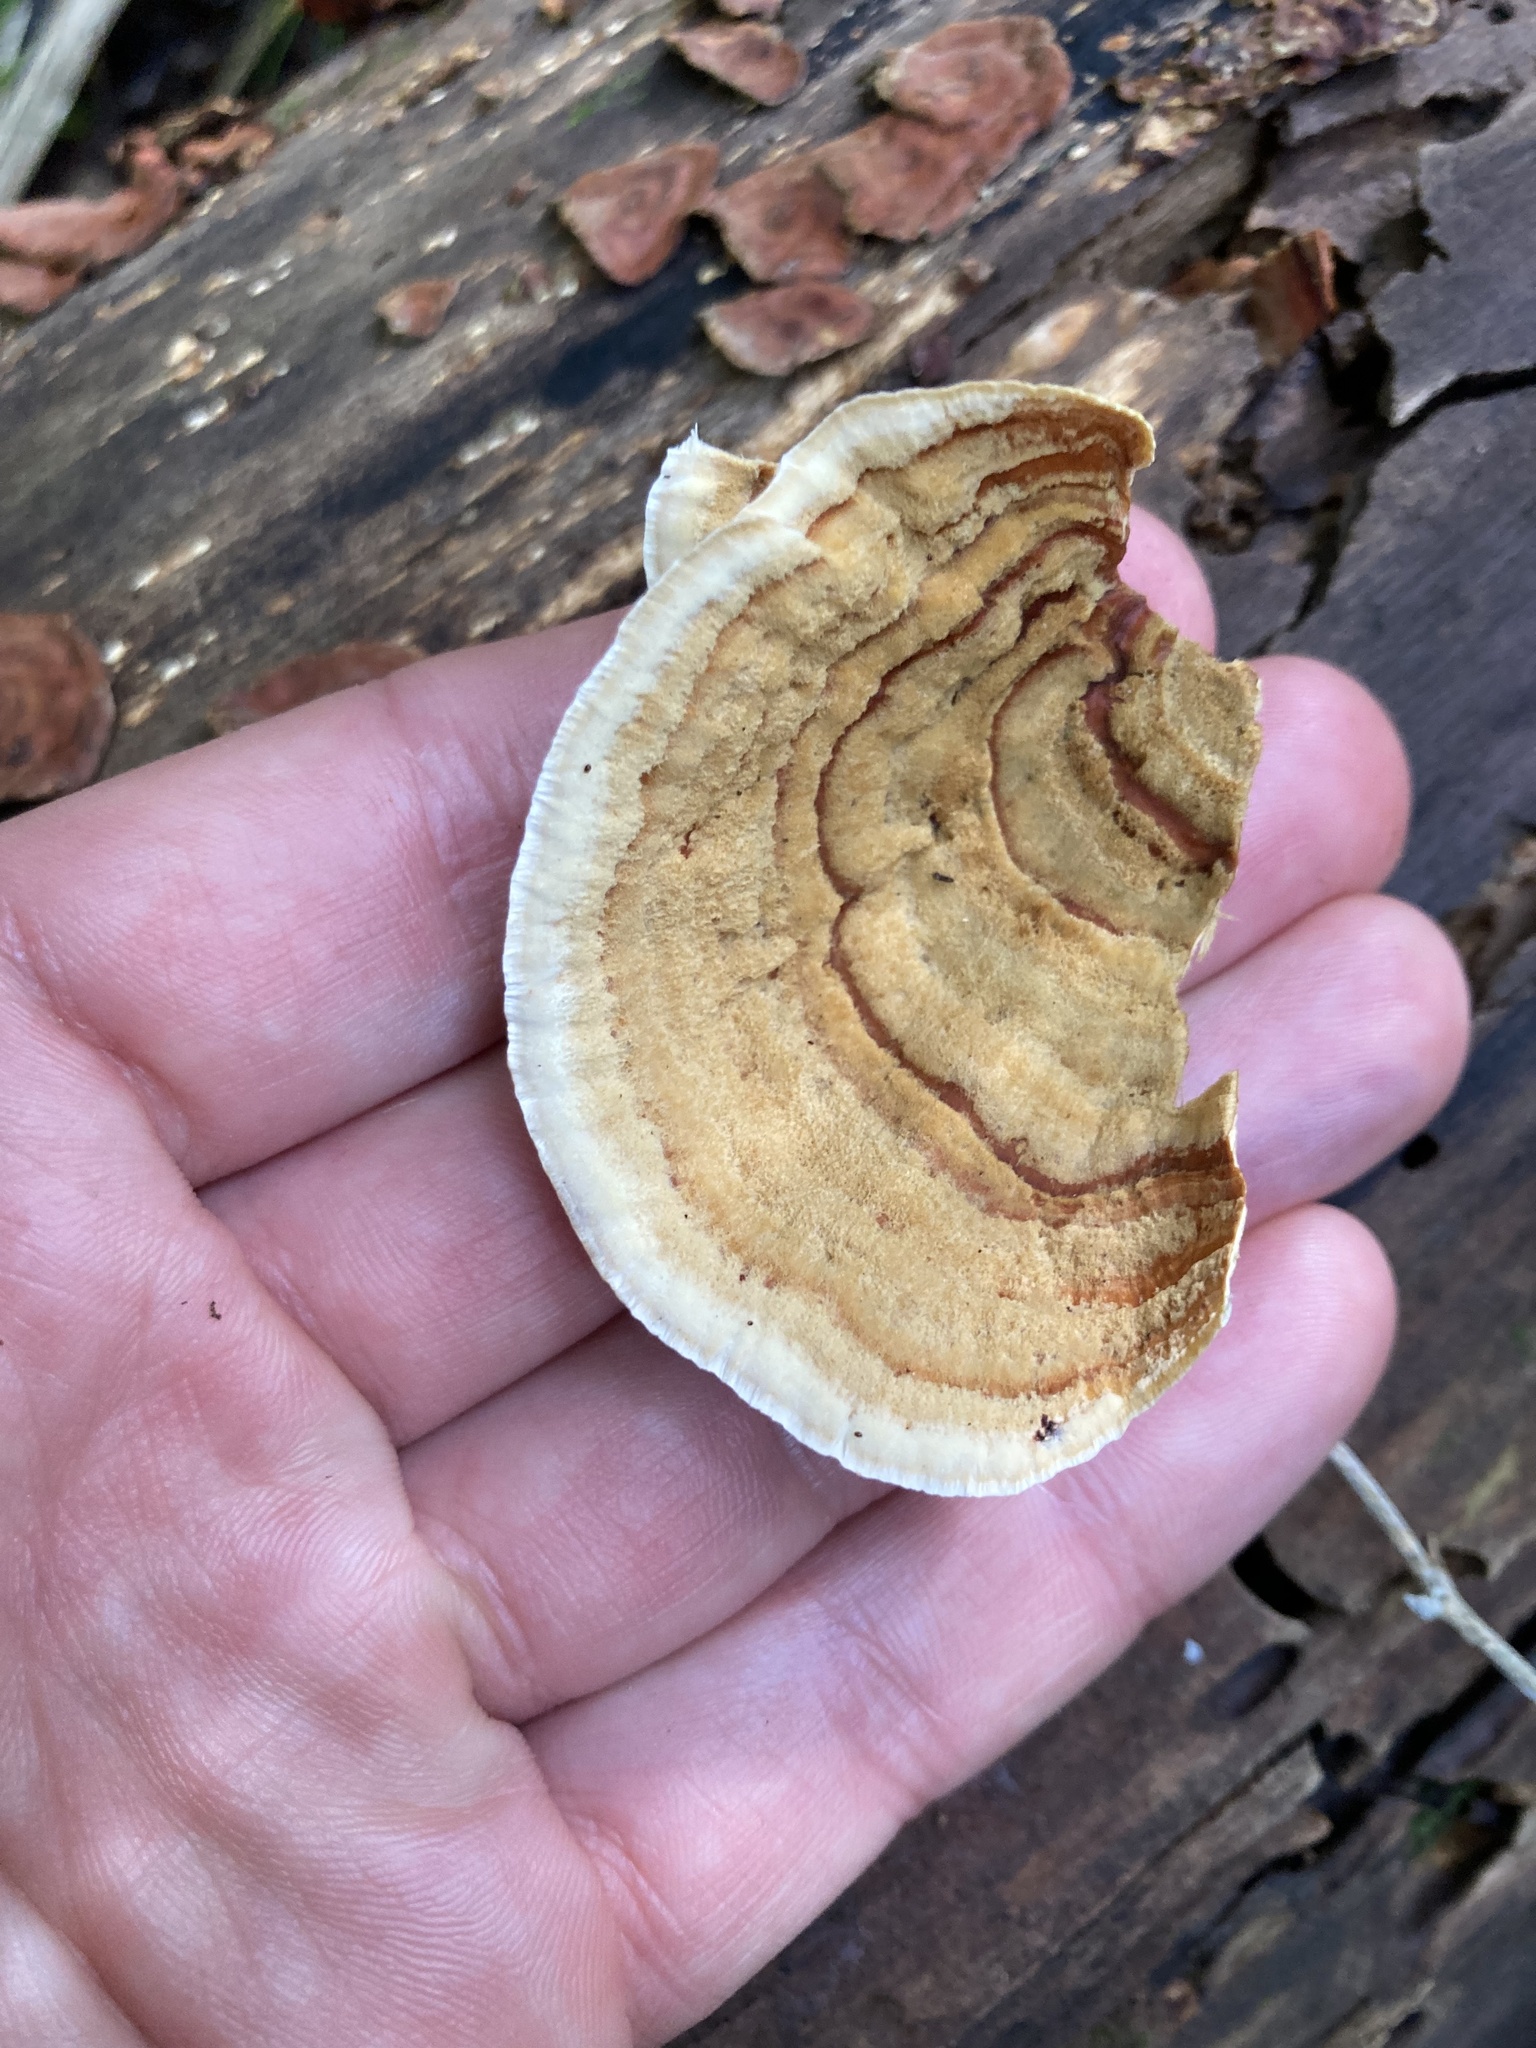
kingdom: Fungi
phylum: Basidiomycota
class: Agaricomycetes
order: Russulales
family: Stereaceae
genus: Stereum
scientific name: Stereum versicolor
